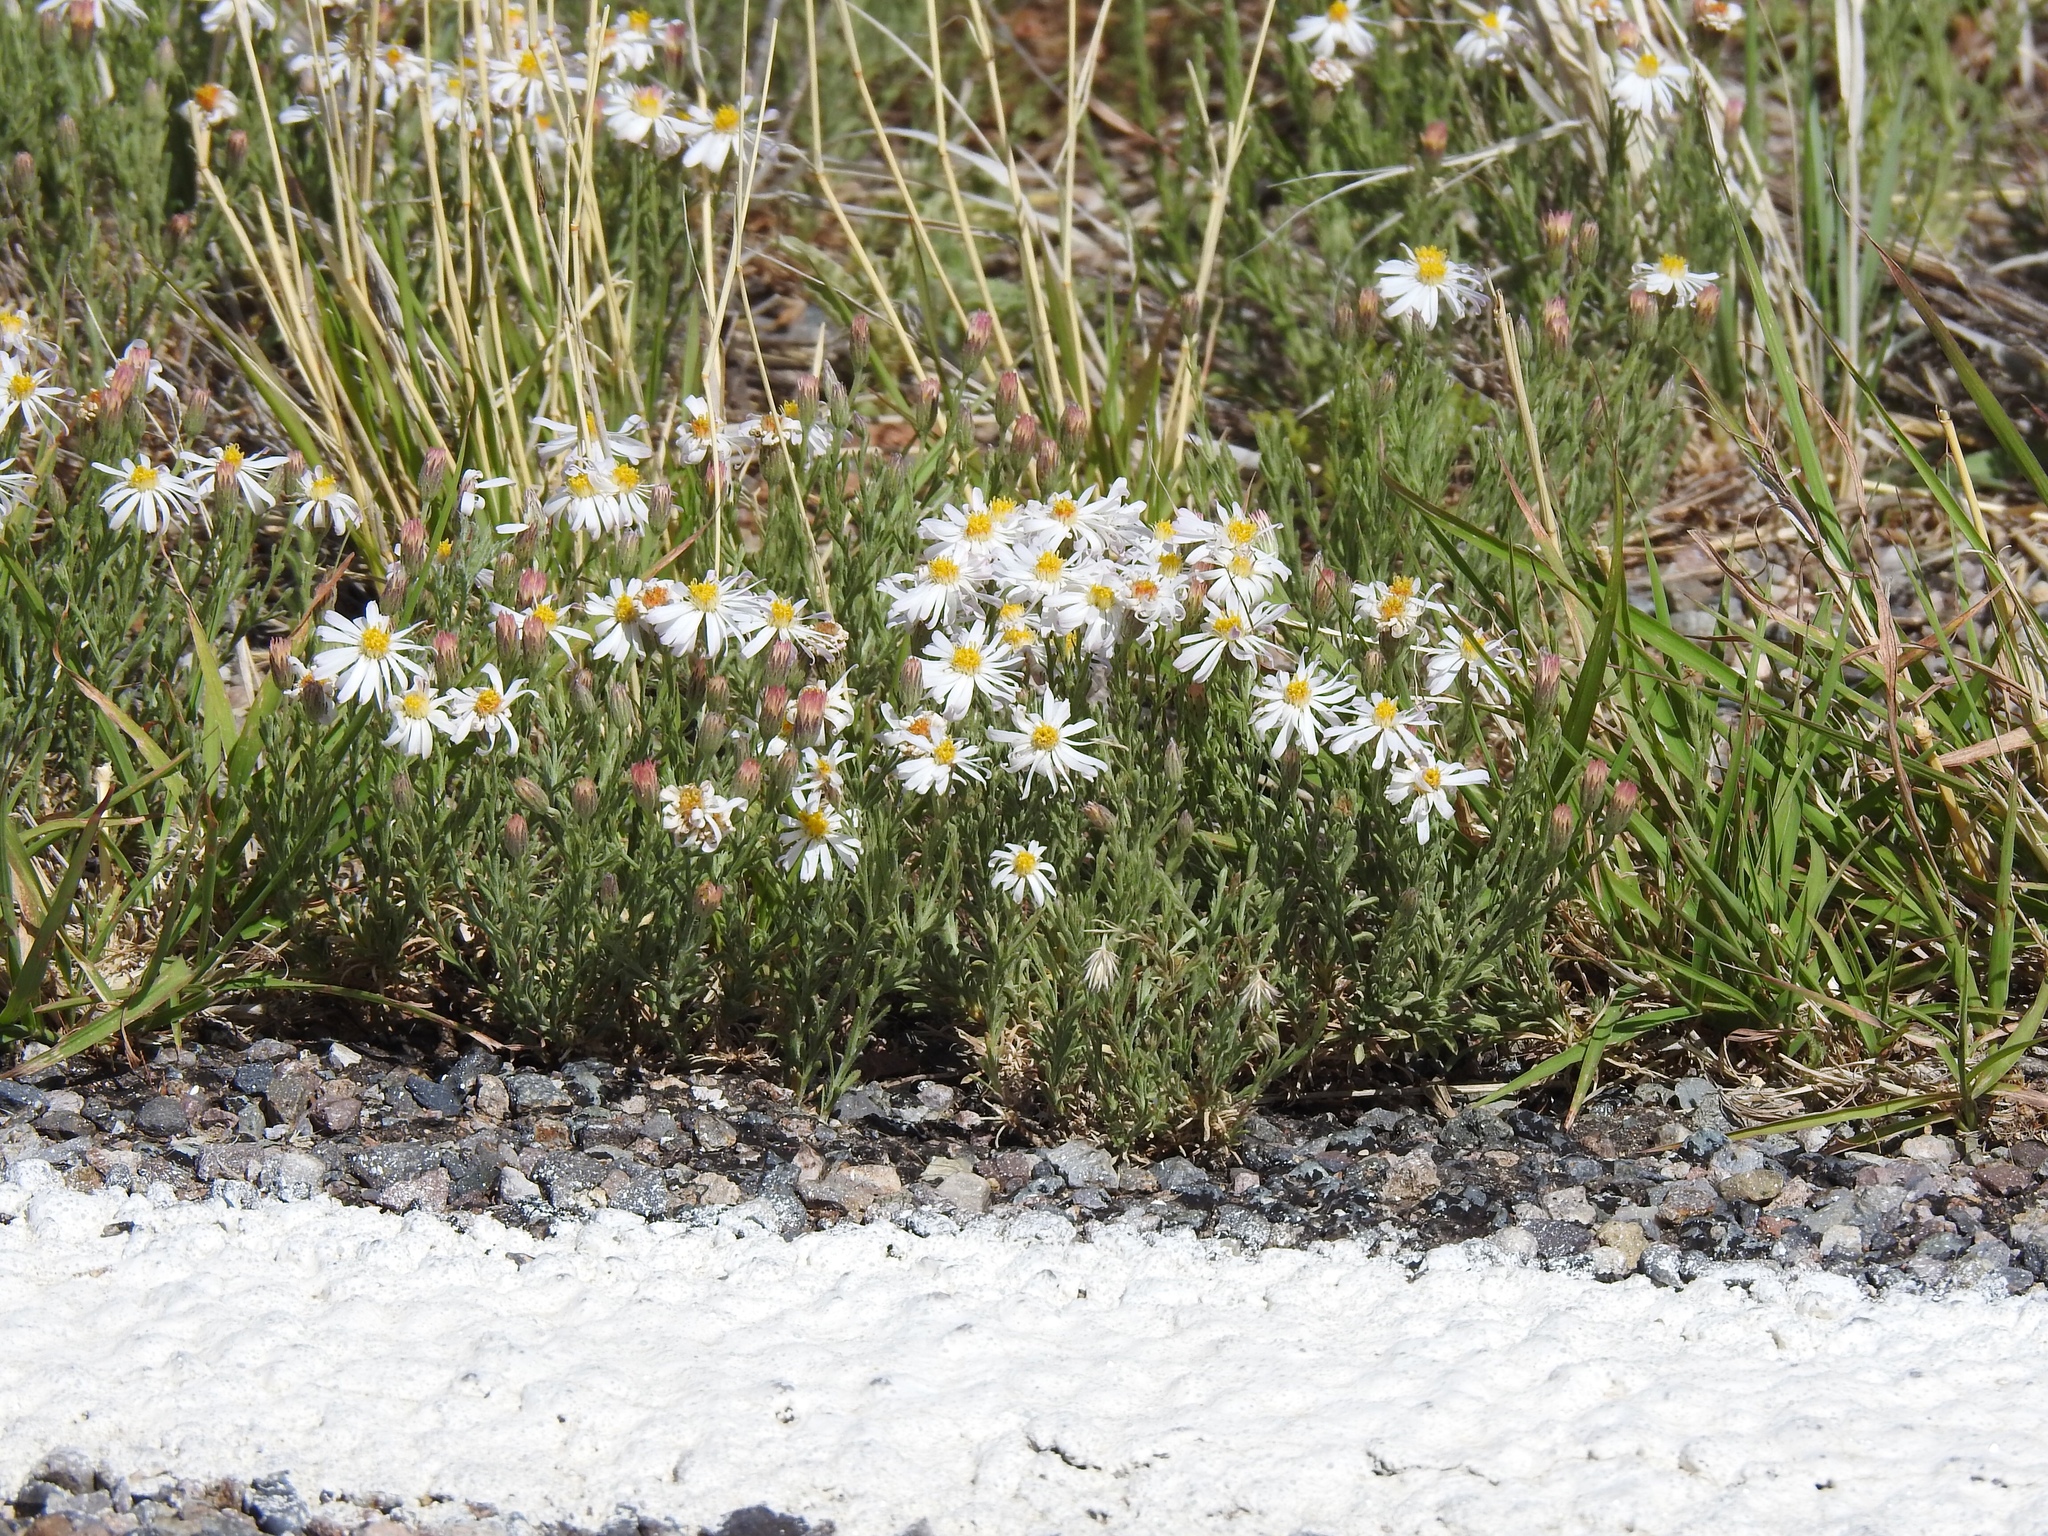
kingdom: Plantae
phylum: Tracheophyta
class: Magnoliopsida
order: Asterales
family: Asteraceae
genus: Chaetopappa
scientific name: Chaetopappa ericoides
